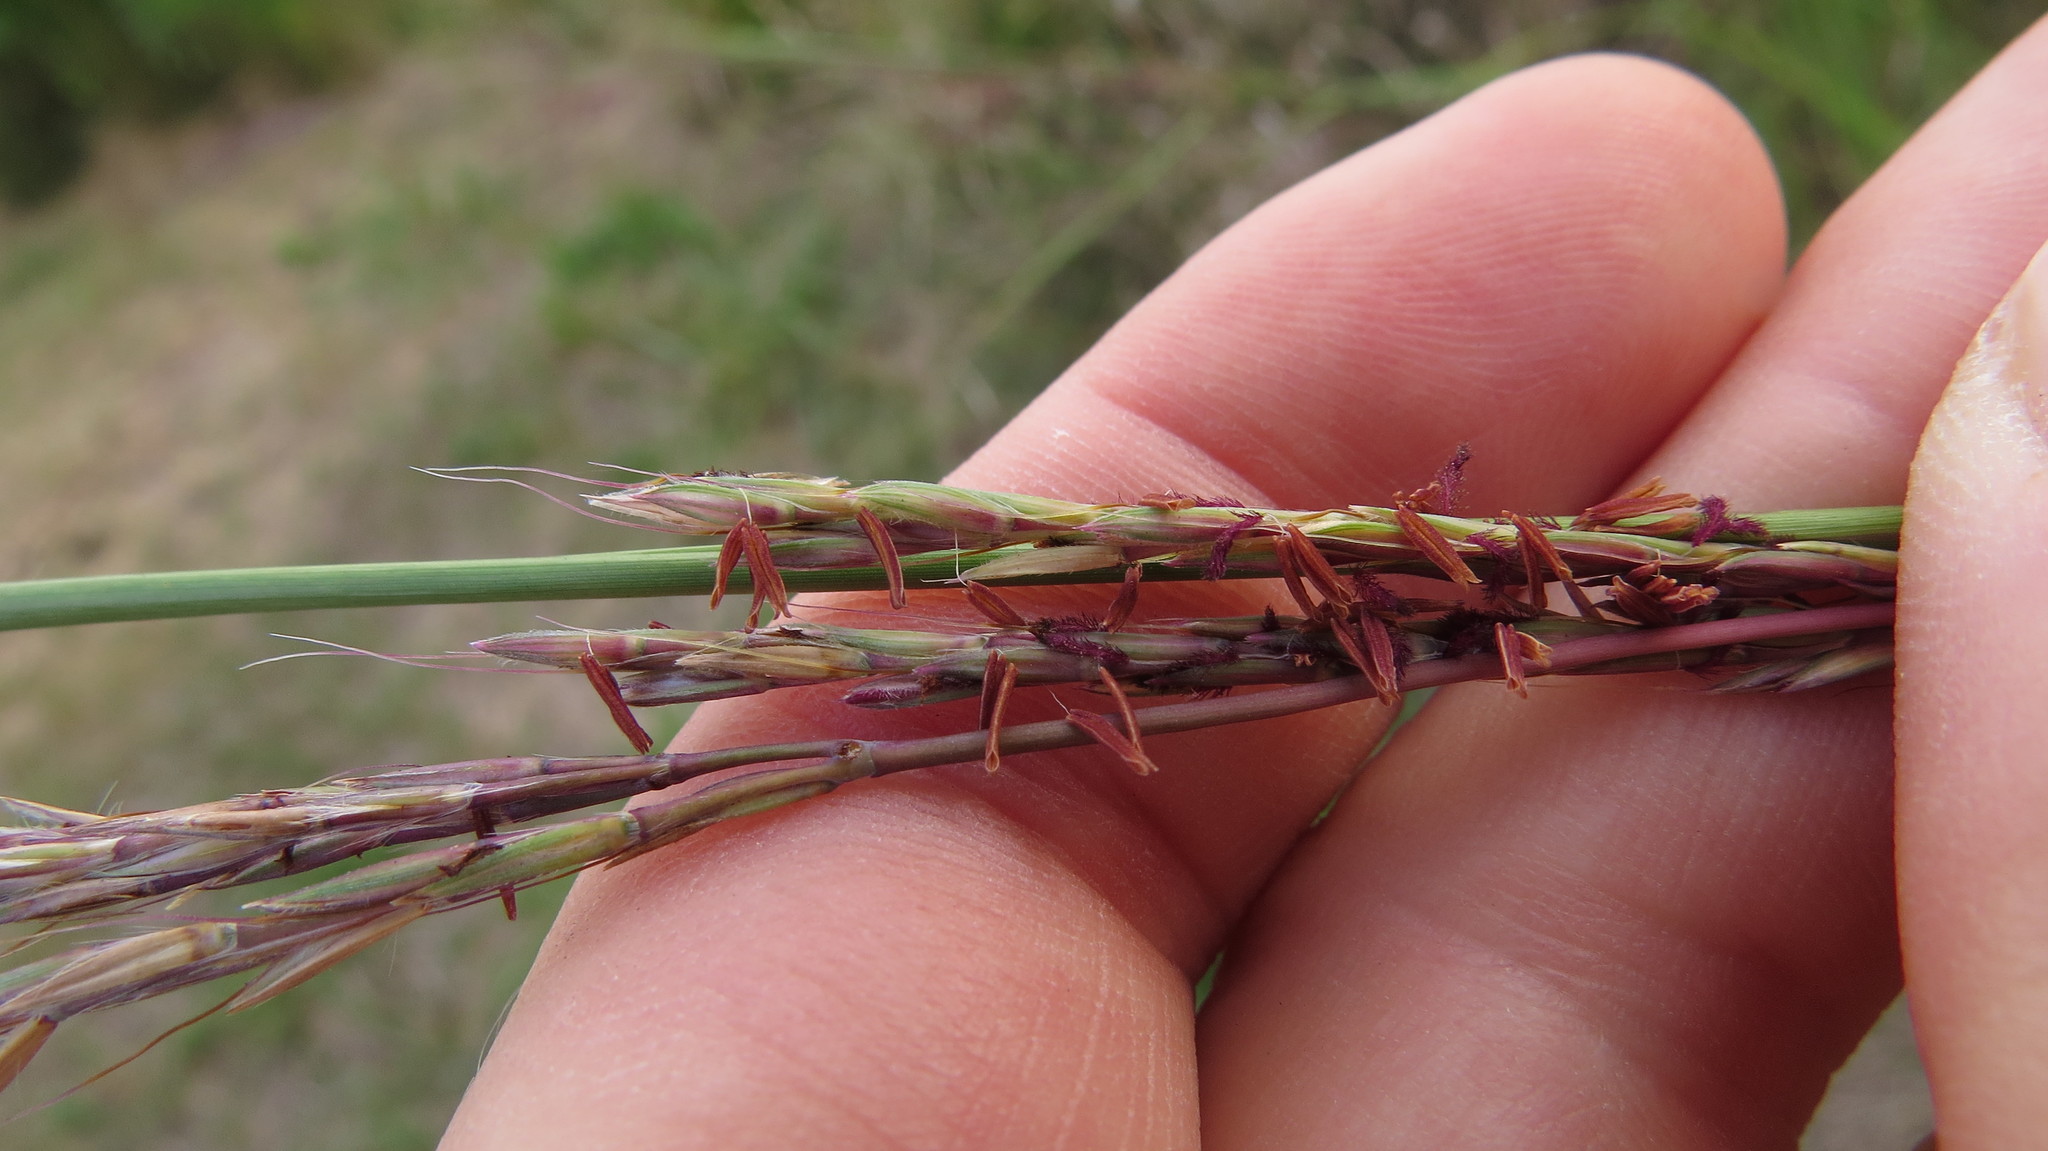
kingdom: Plantae
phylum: Tracheophyta
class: Liliopsida
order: Poales
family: Poaceae
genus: Andropogon
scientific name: Andropogon gerardi
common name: Big bluestem
